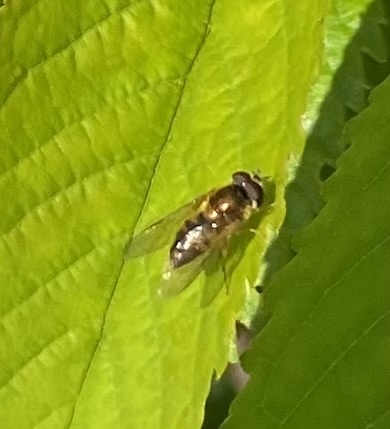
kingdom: Animalia
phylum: Arthropoda
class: Insecta
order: Diptera
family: Syrphidae
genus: Epistrophe
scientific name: Epistrophe eligans
